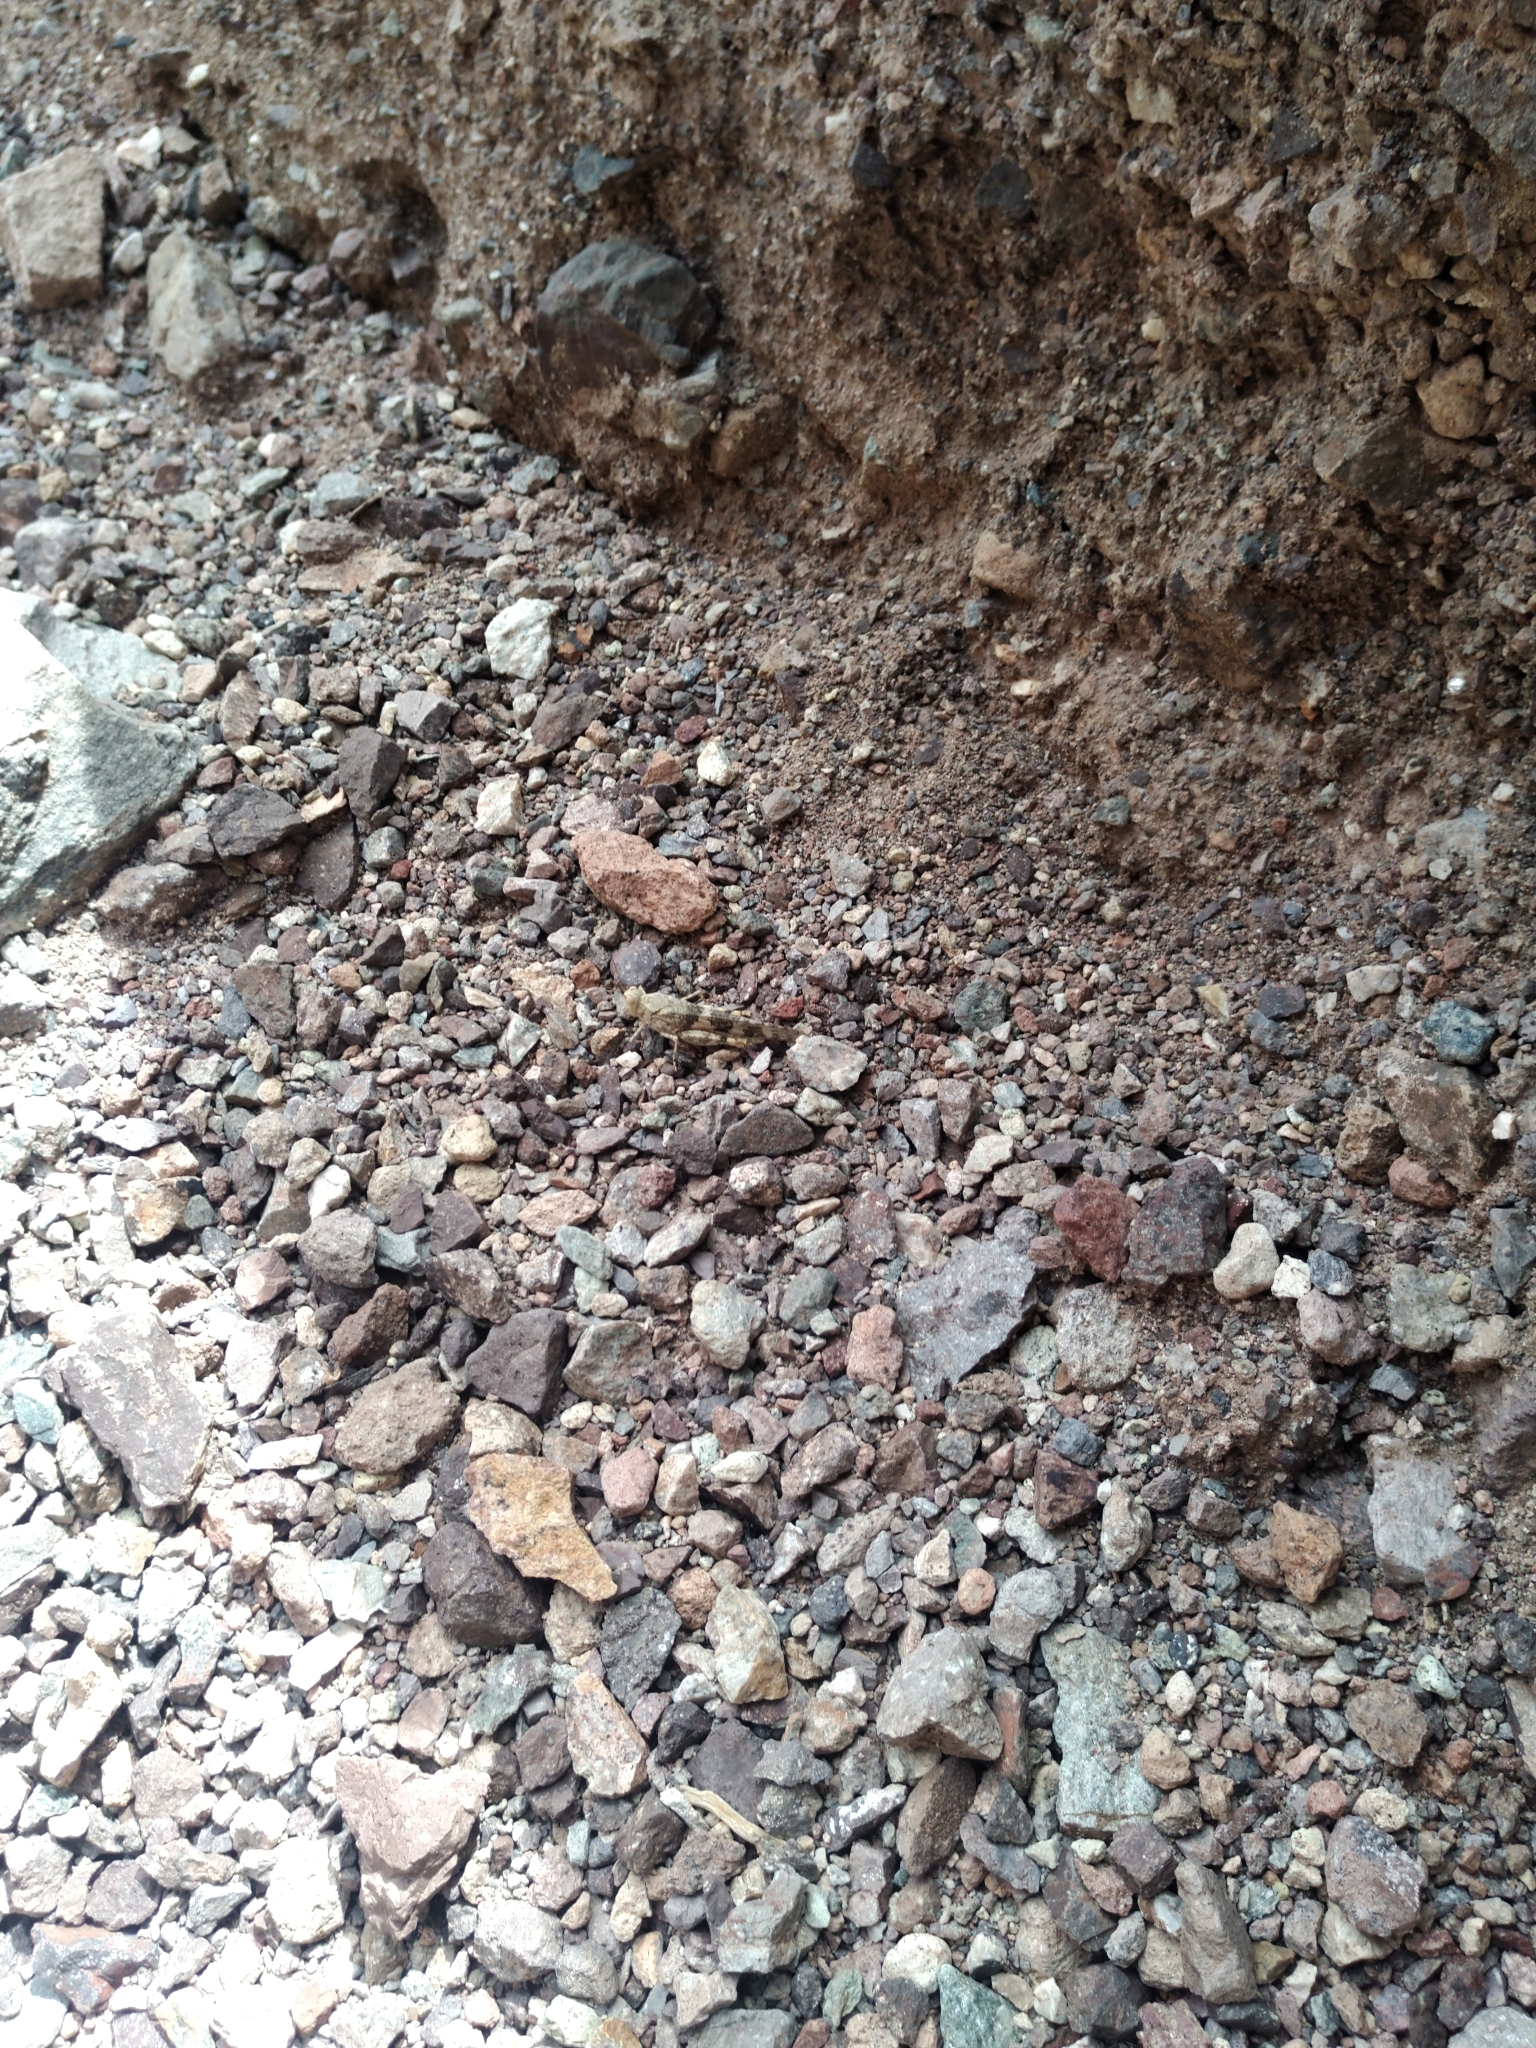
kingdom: Animalia
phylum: Arthropoda
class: Insecta
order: Orthoptera
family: Acrididae
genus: Trimerotropis
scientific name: Trimerotropis pallidipennis
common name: Pallid-winged grasshopper
